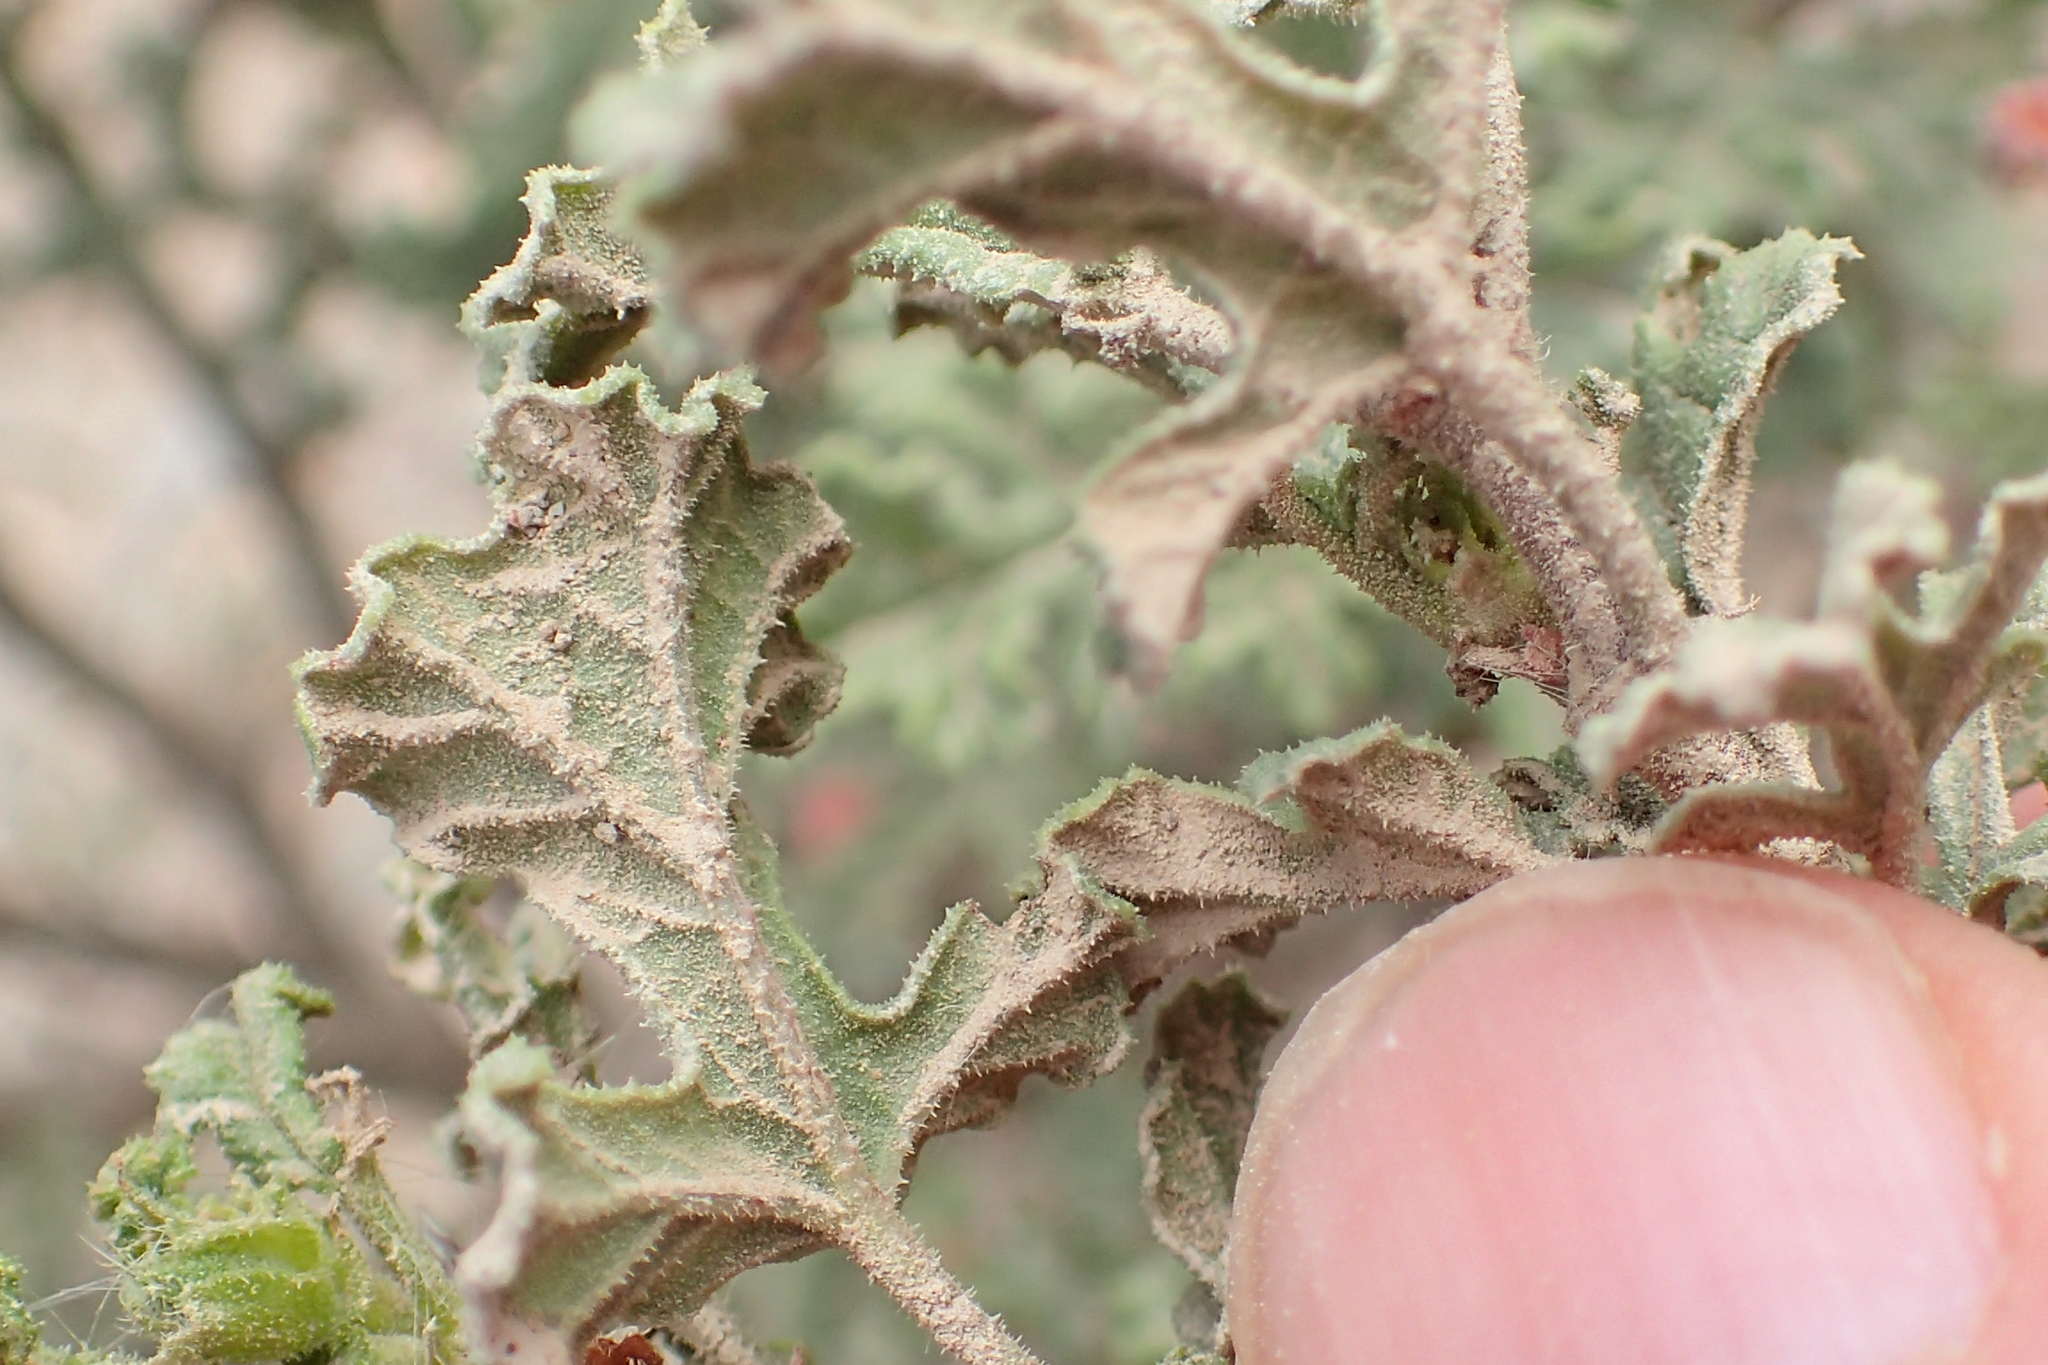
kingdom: Plantae
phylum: Tracheophyta
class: Magnoliopsida
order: Geraniales
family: Geraniaceae
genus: Pelargonium
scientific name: Pelargonium quercifolium
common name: Oakleaf geranium
